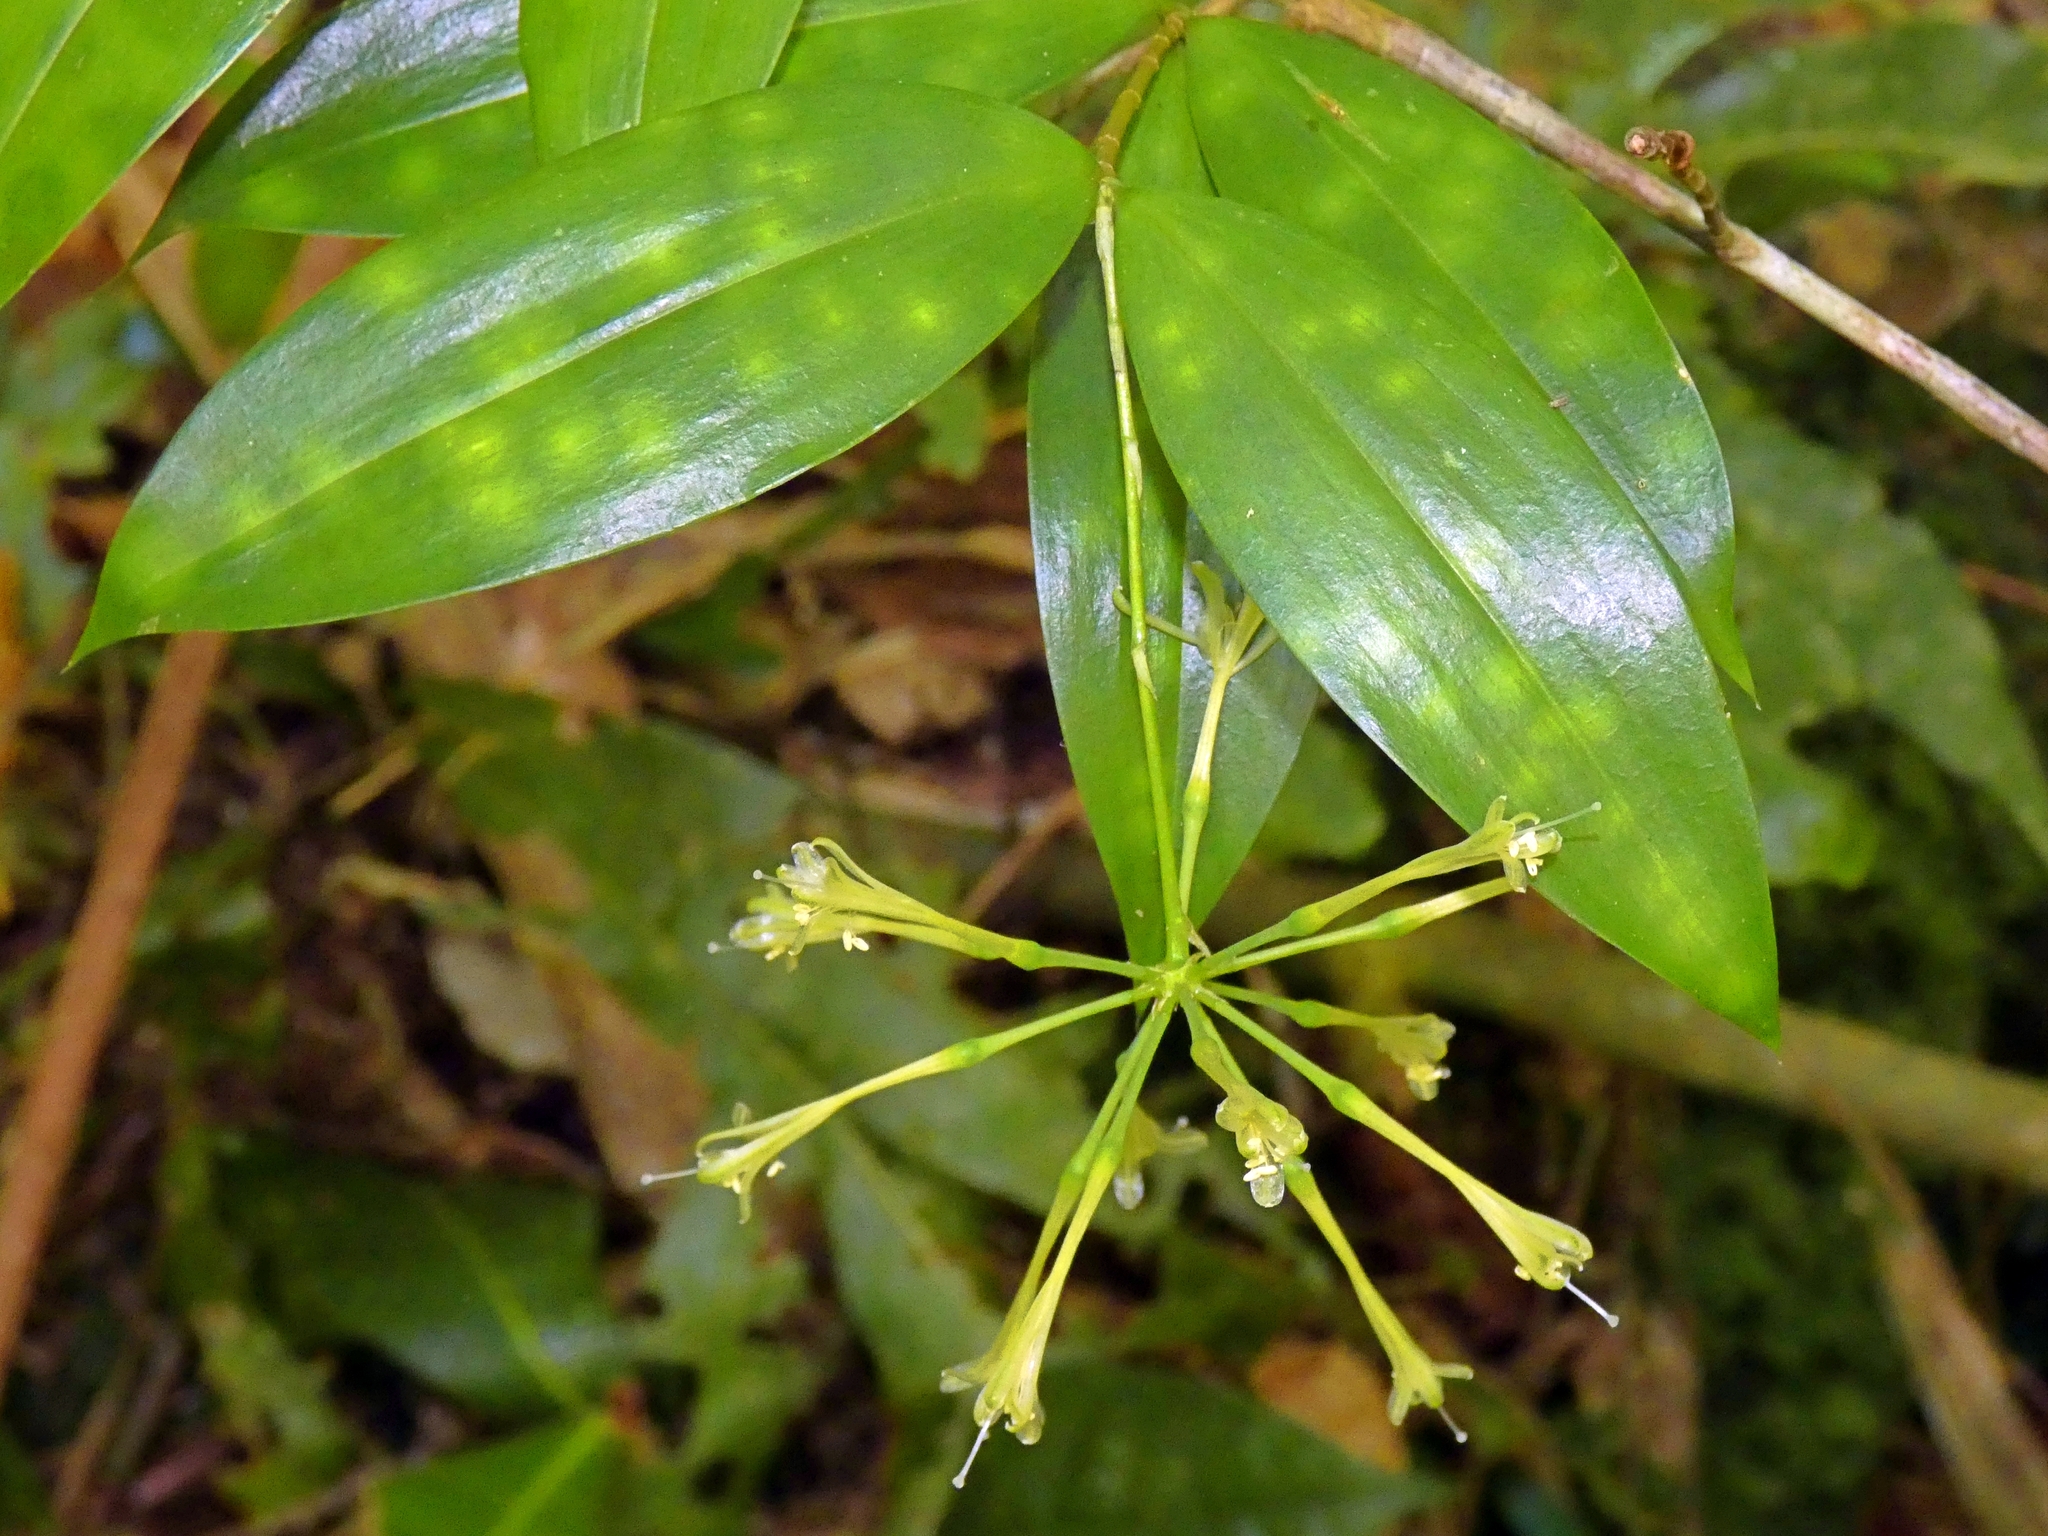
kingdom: Plantae
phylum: Tracheophyta
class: Liliopsida
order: Asparagales
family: Asparagaceae
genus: Dracaena
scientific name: Dracaena surculosa
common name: Spotted dracaena
